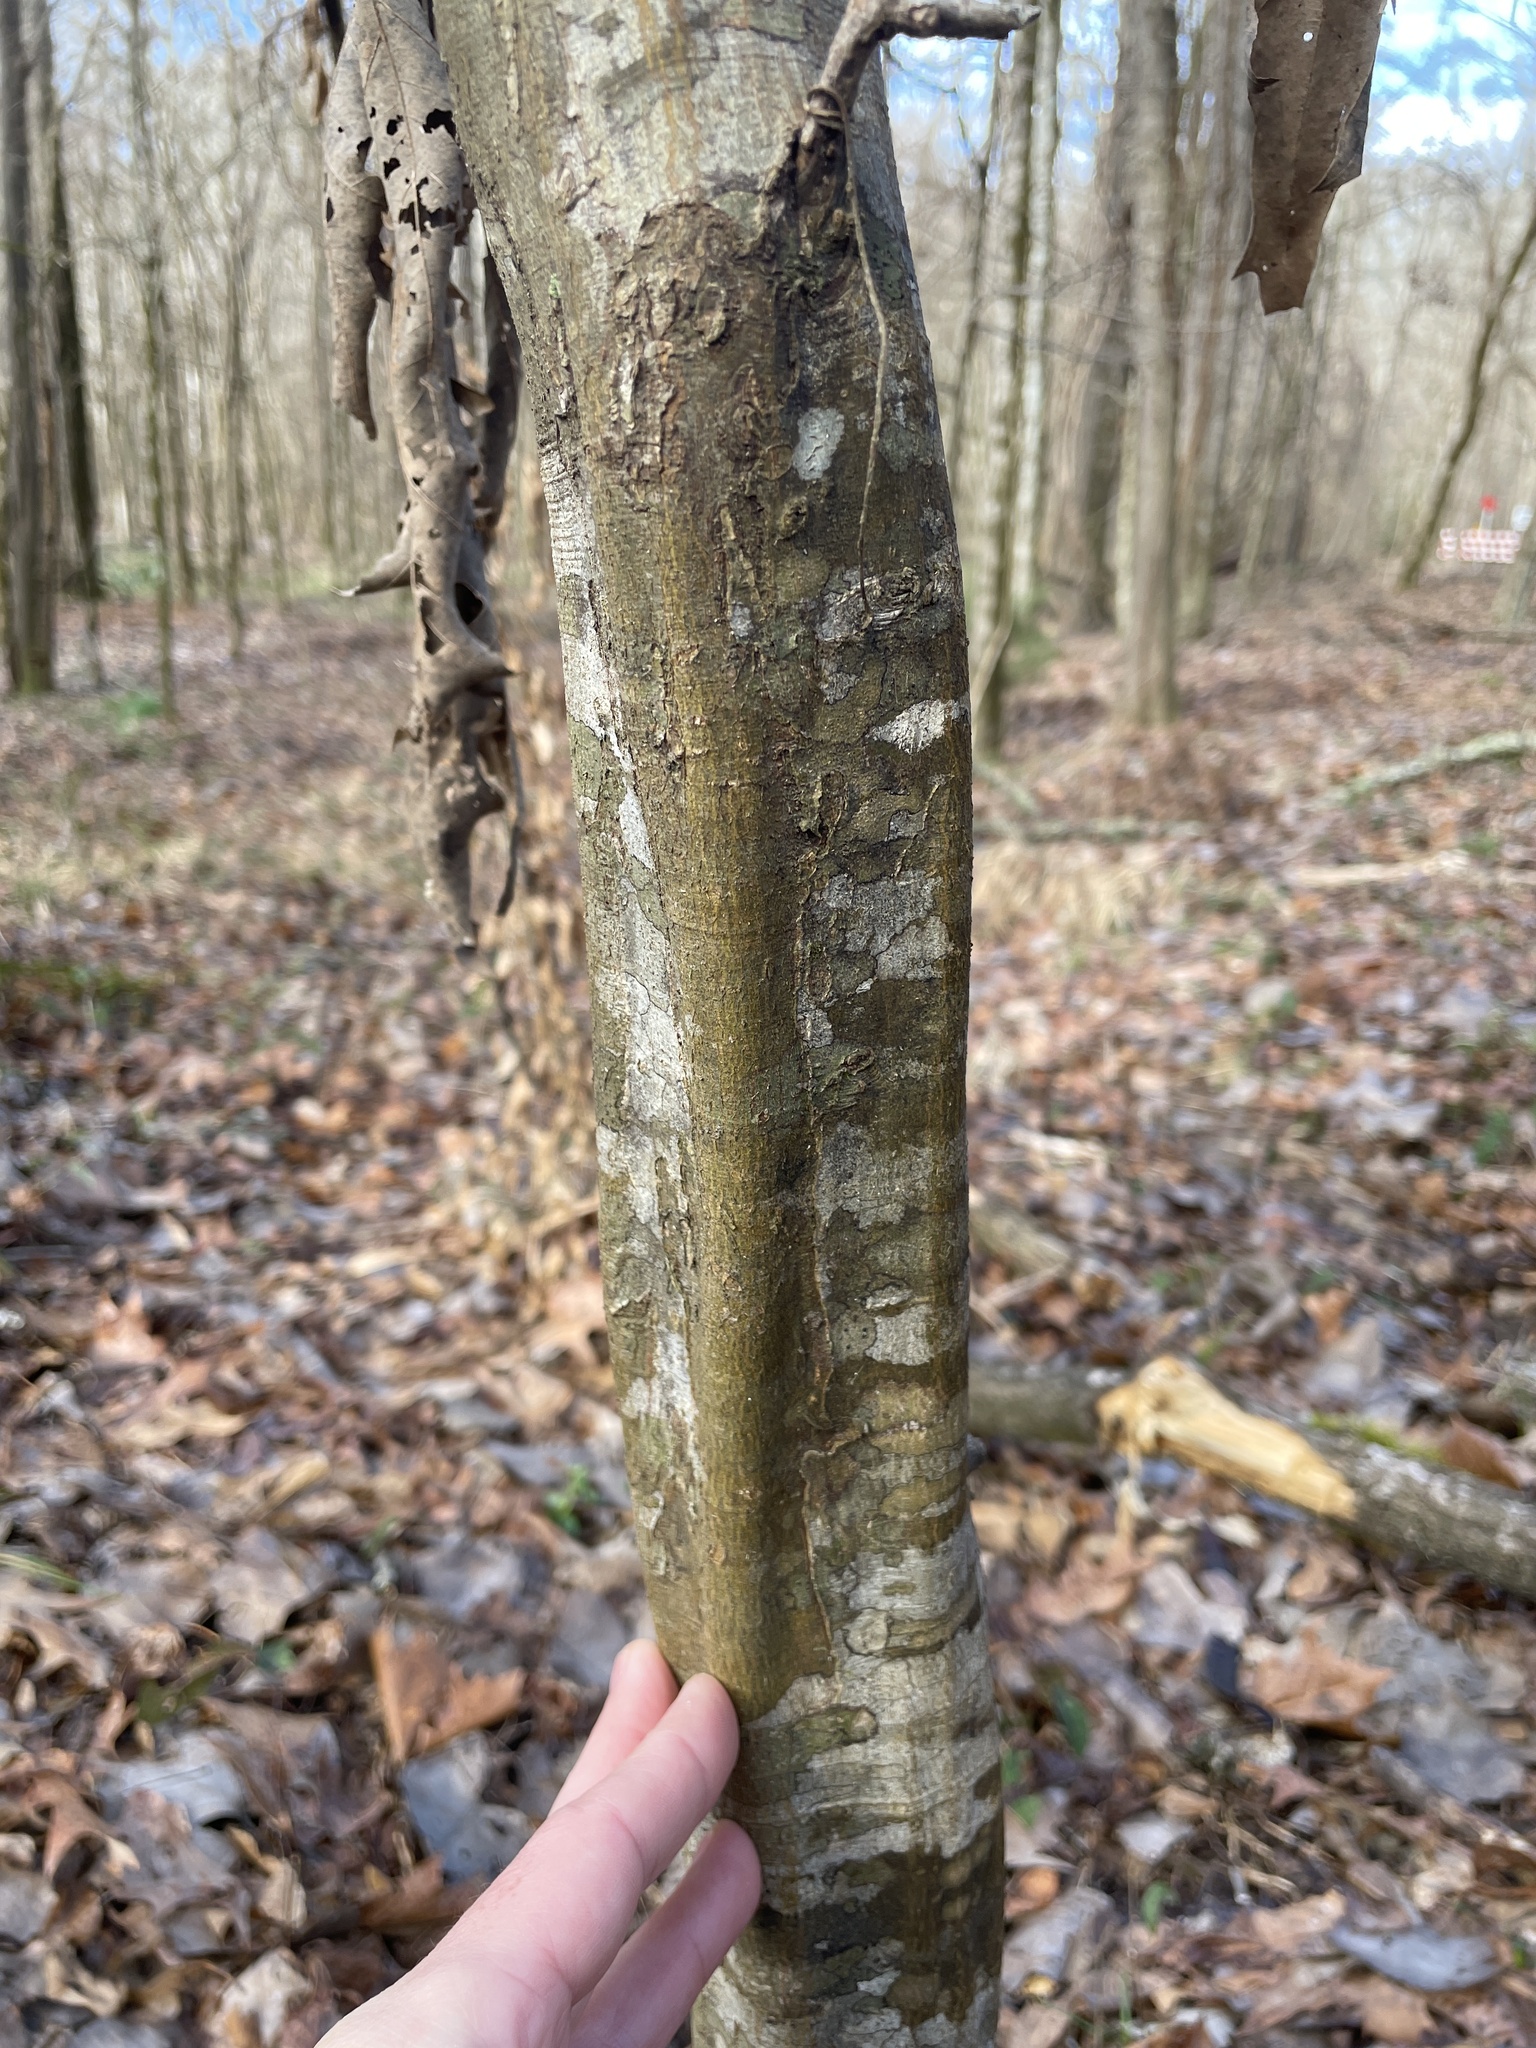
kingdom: Plantae
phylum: Tracheophyta
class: Magnoliopsida
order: Fagales
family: Betulaceae
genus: Carpinus
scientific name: Carpinus caroliniana
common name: American hornbeam
